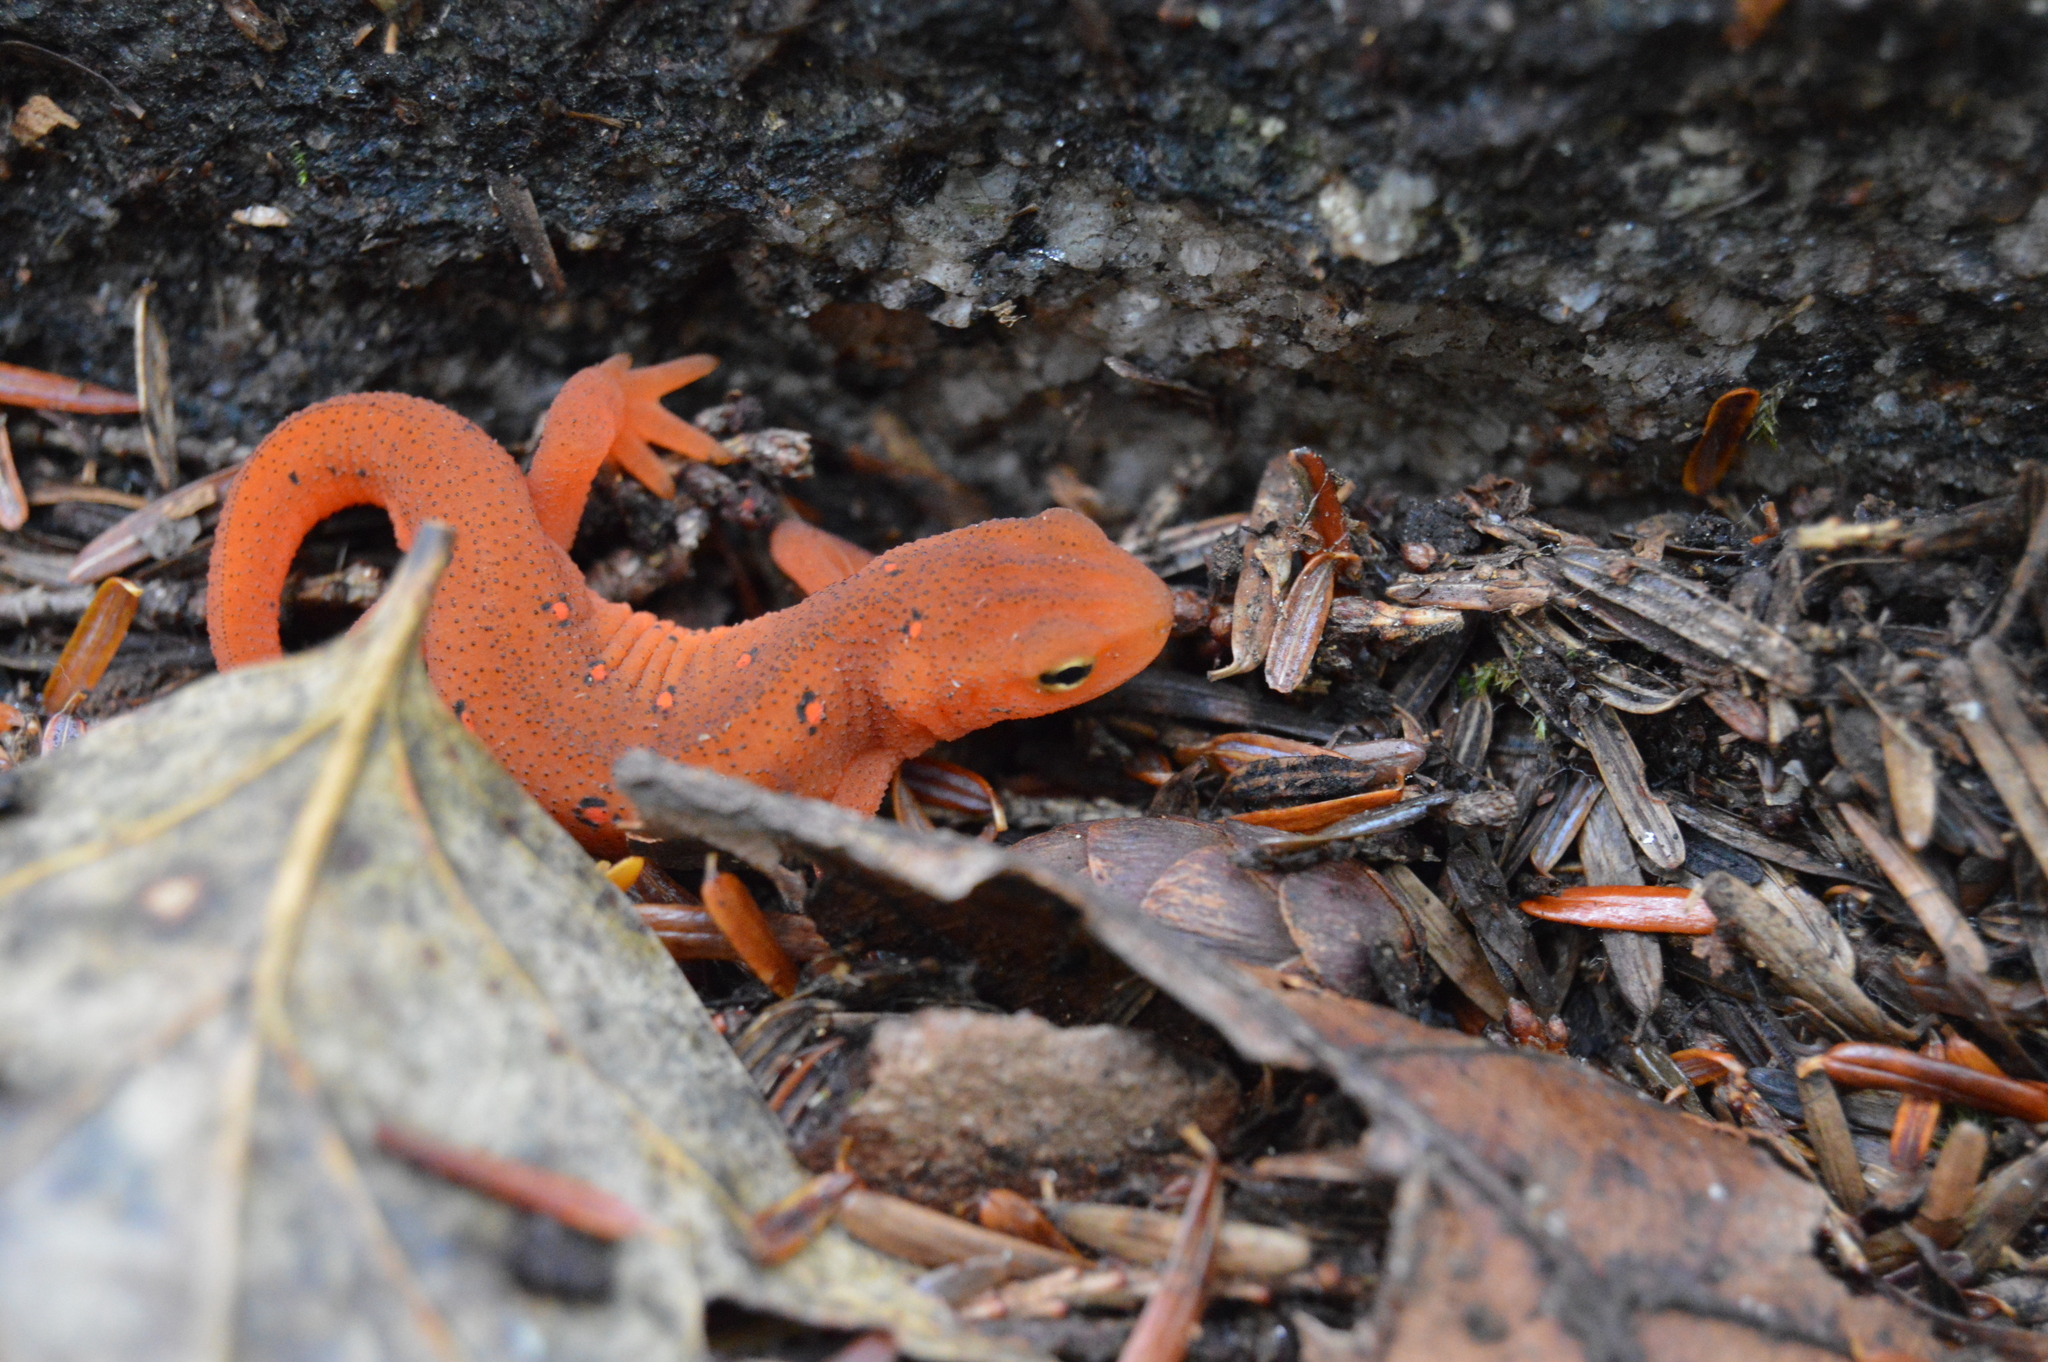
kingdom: Animalia
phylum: Chordata
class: Amphibia
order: Caudata
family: Salamandridae
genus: Notophthalmus
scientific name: Notophthalmus viridescens
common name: Eastern newt
